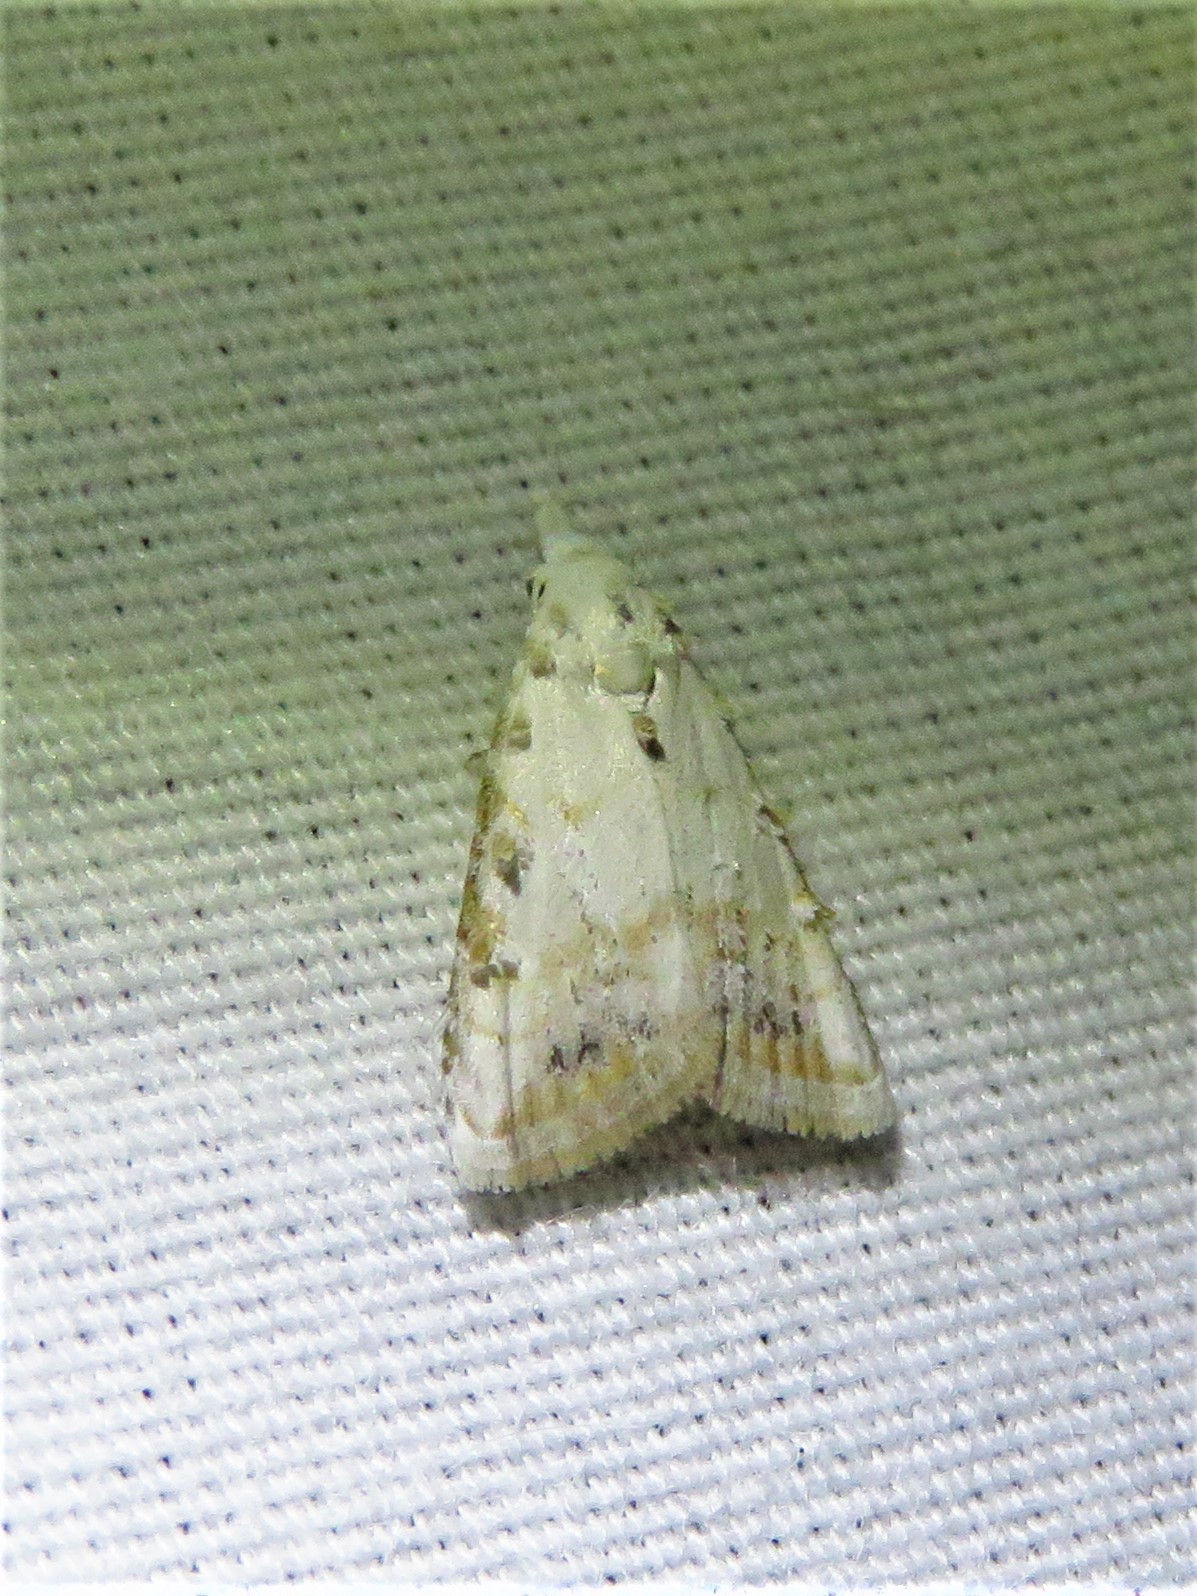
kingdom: Animalia
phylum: Arthropoda
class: Insecta
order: Lepidoptera
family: Nolidae
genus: Nola
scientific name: Nola cereella
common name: Sorghum webworm moth
